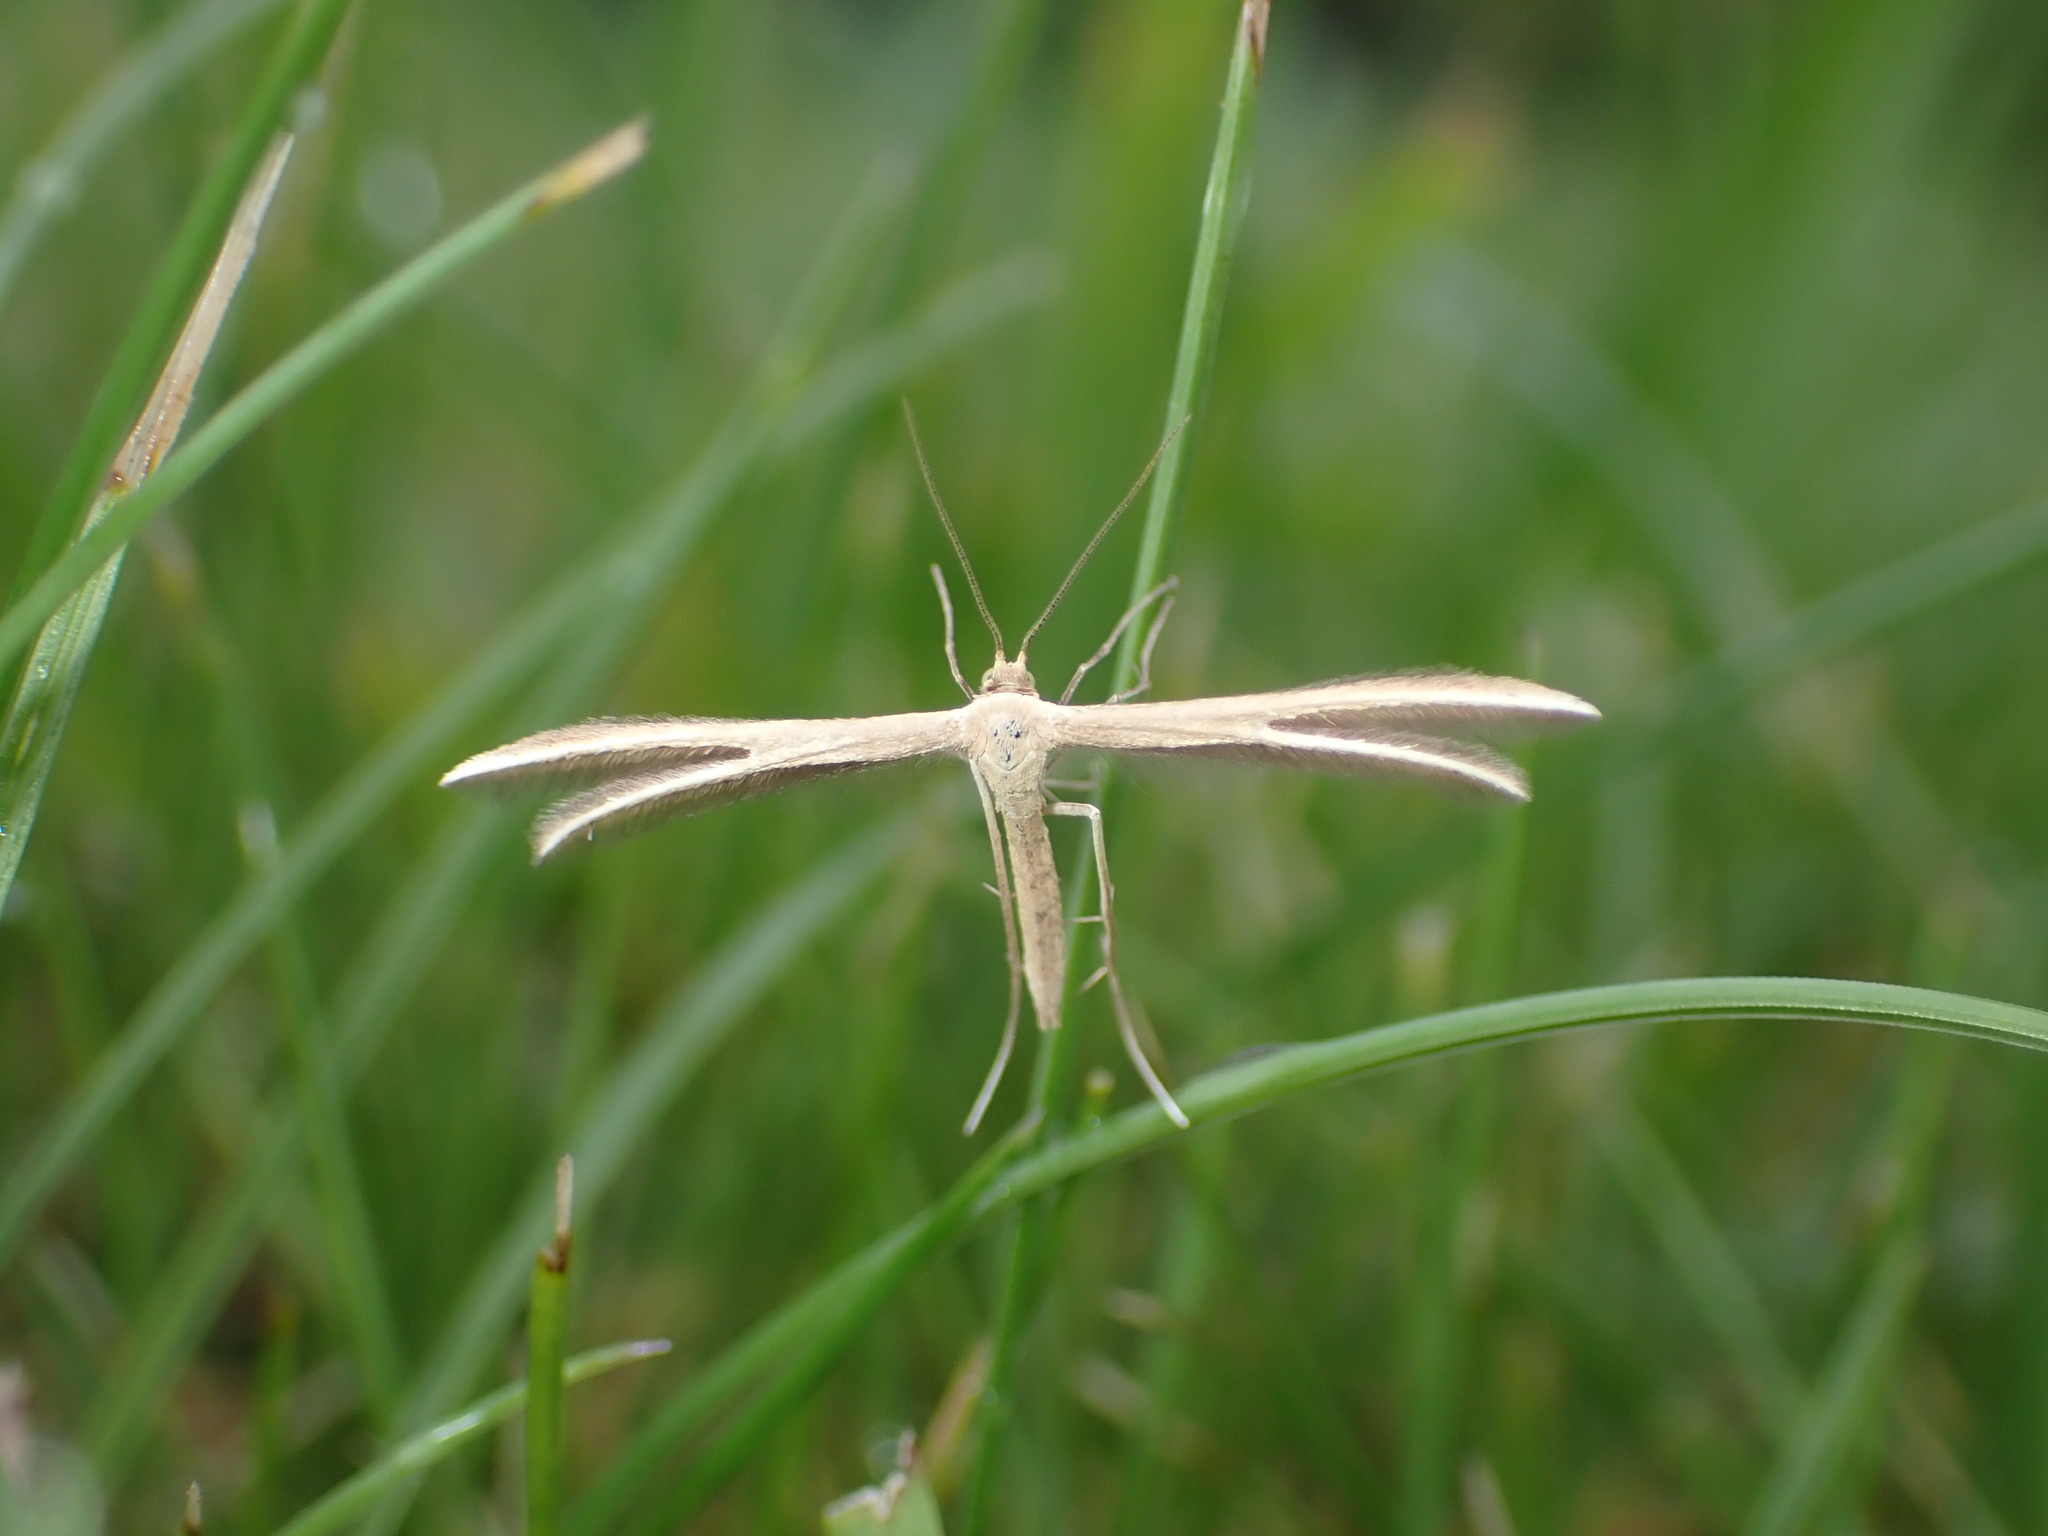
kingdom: Animalia
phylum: Arthropoda
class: Insecta
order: Lepidoptera
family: Pterophoridae
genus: Pterophorus
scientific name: Pterophorus innotatalis
